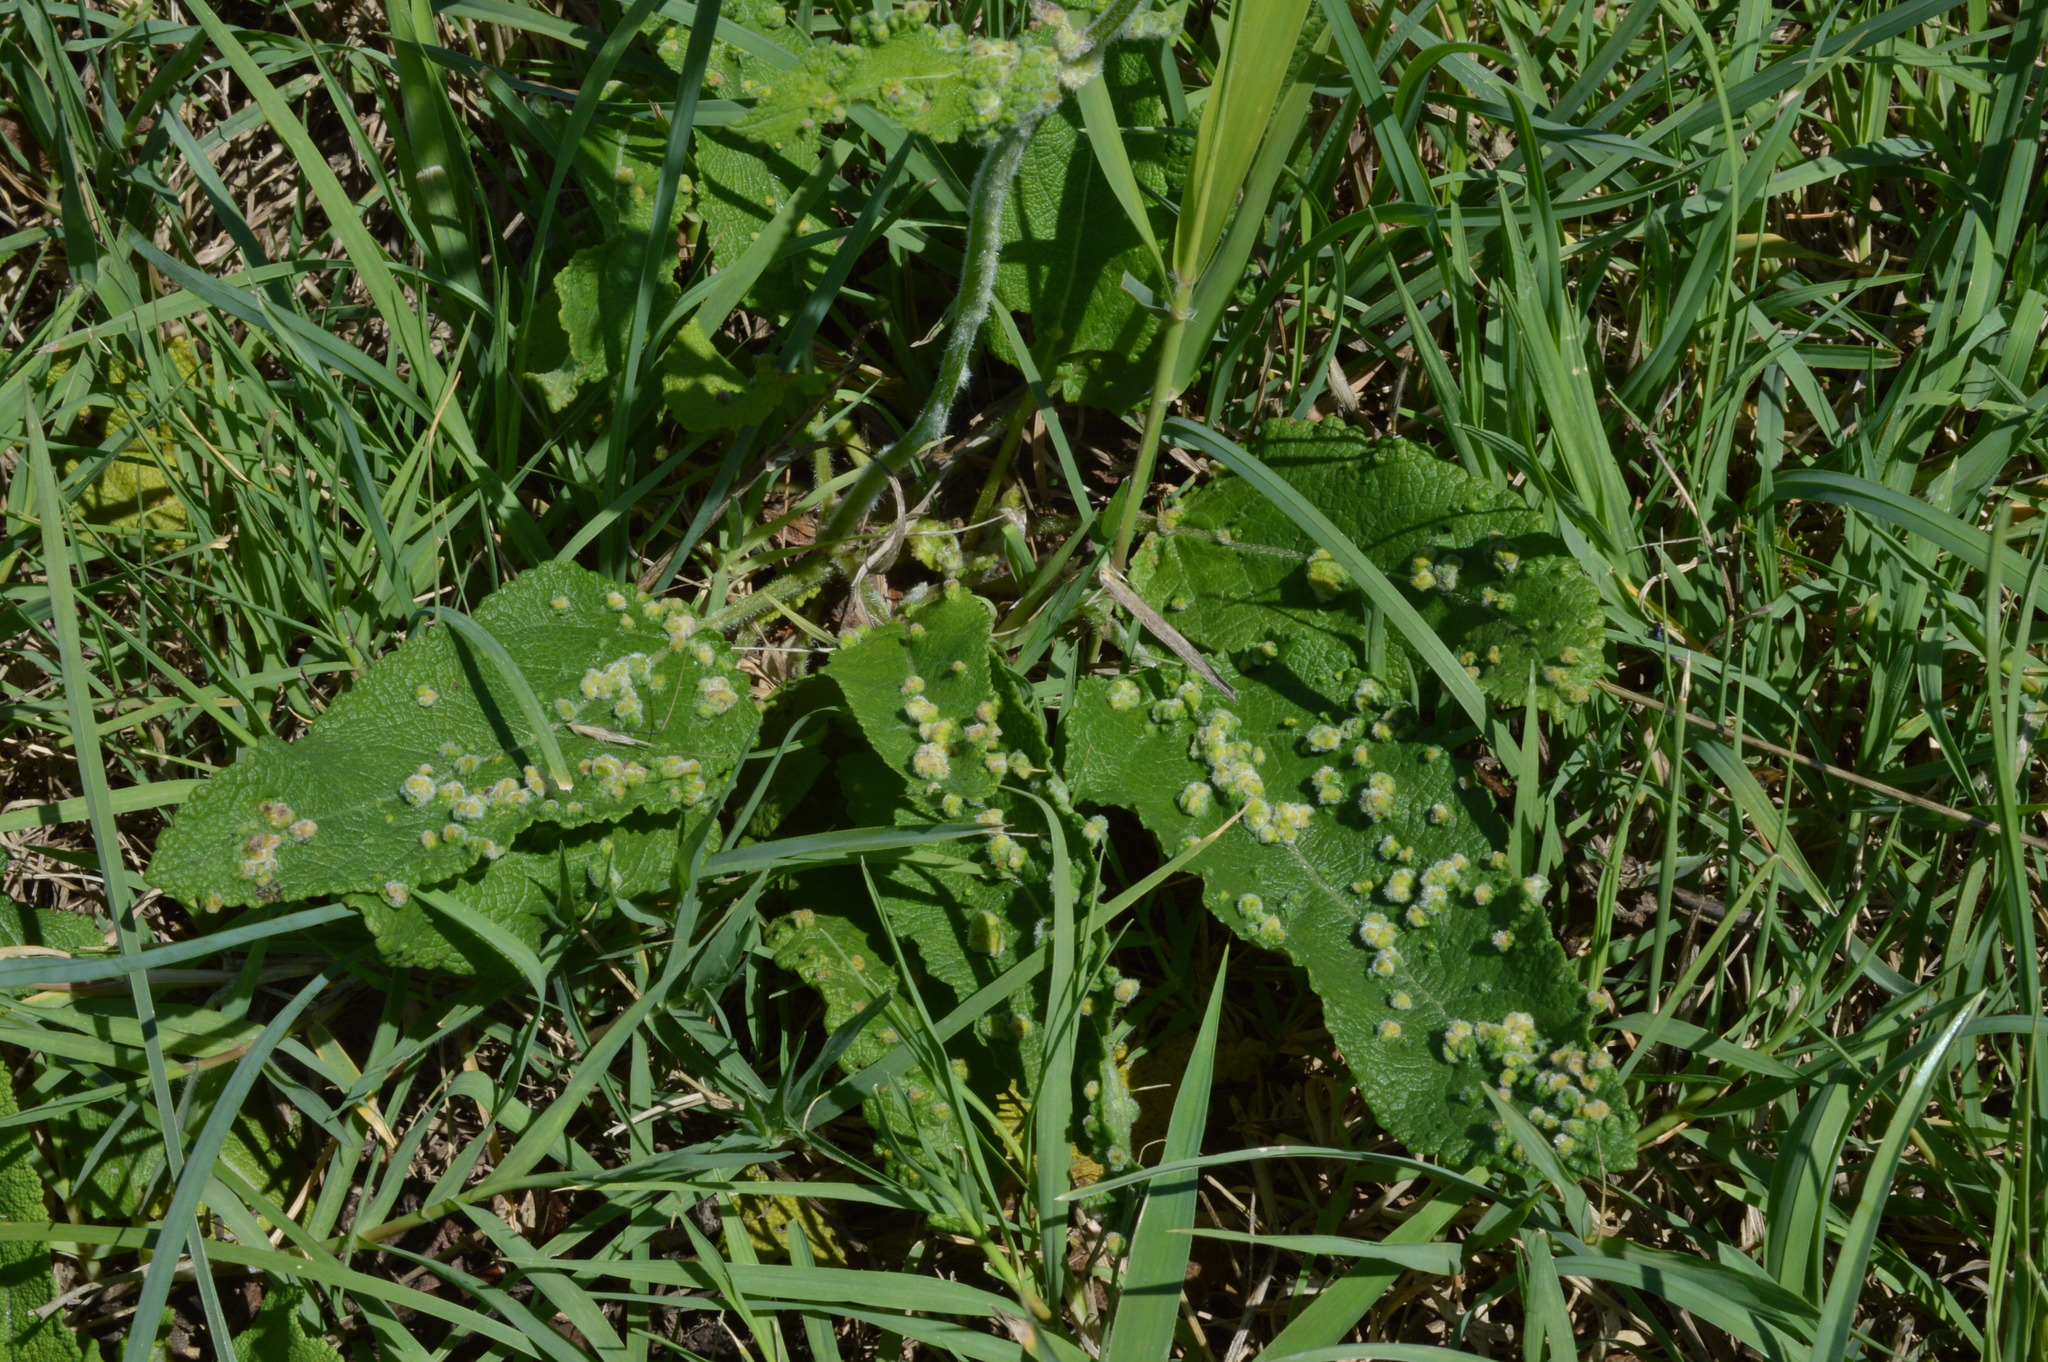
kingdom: Plantae
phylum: Tracheophyta
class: Magnoliopsida
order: Lamiales
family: Lamiaceae
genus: Salvia
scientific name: Salvia pratensis
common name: Meadow sage
